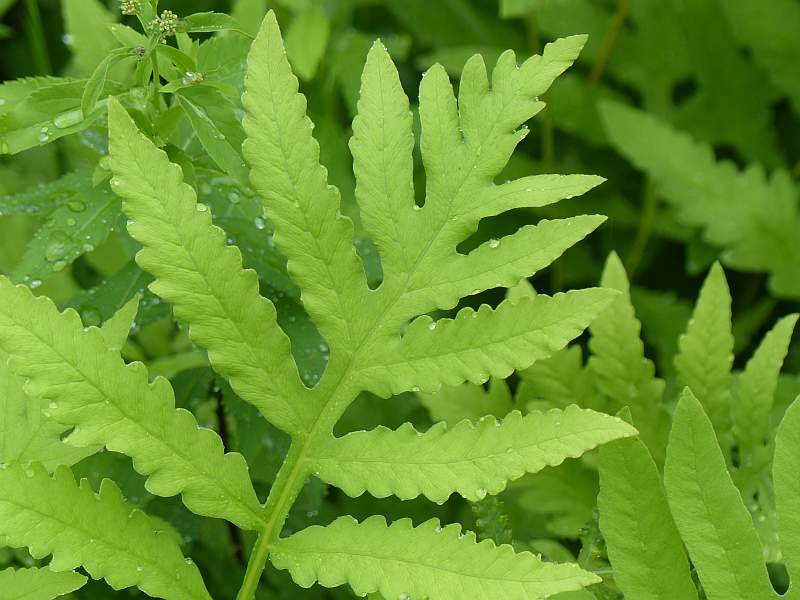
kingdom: Plantae
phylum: Tracheophyta
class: Polypodiopsida
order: Polypodiales
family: Onocleaceae
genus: Onoclea
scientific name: Onoclea sensibilis
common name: Sensitive fern
